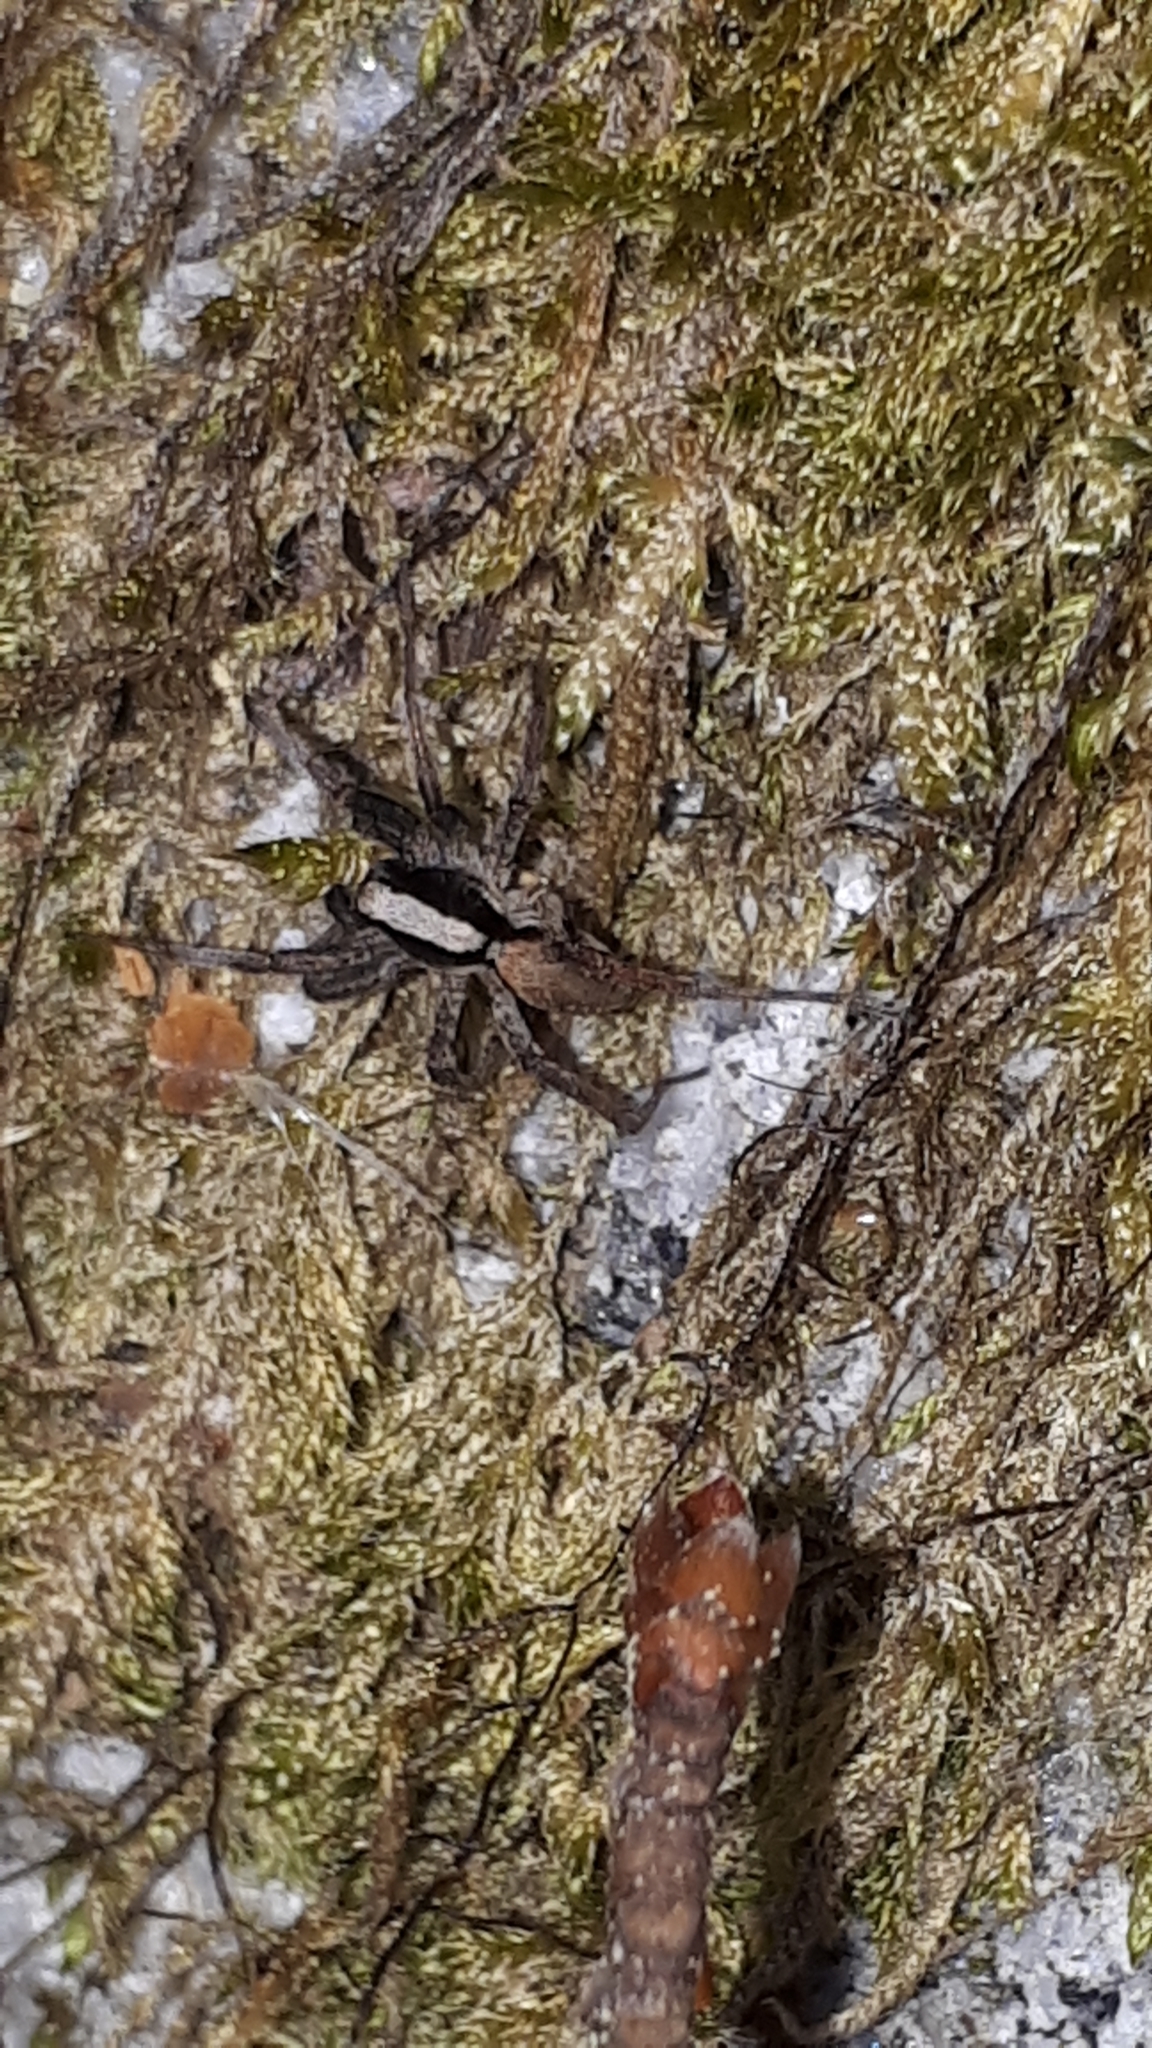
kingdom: Animalia
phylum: Arthropoda
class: Arachnida
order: Araneae
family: Lycosidae
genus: Xerolycosa
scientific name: Xerolycosa nemoralis
